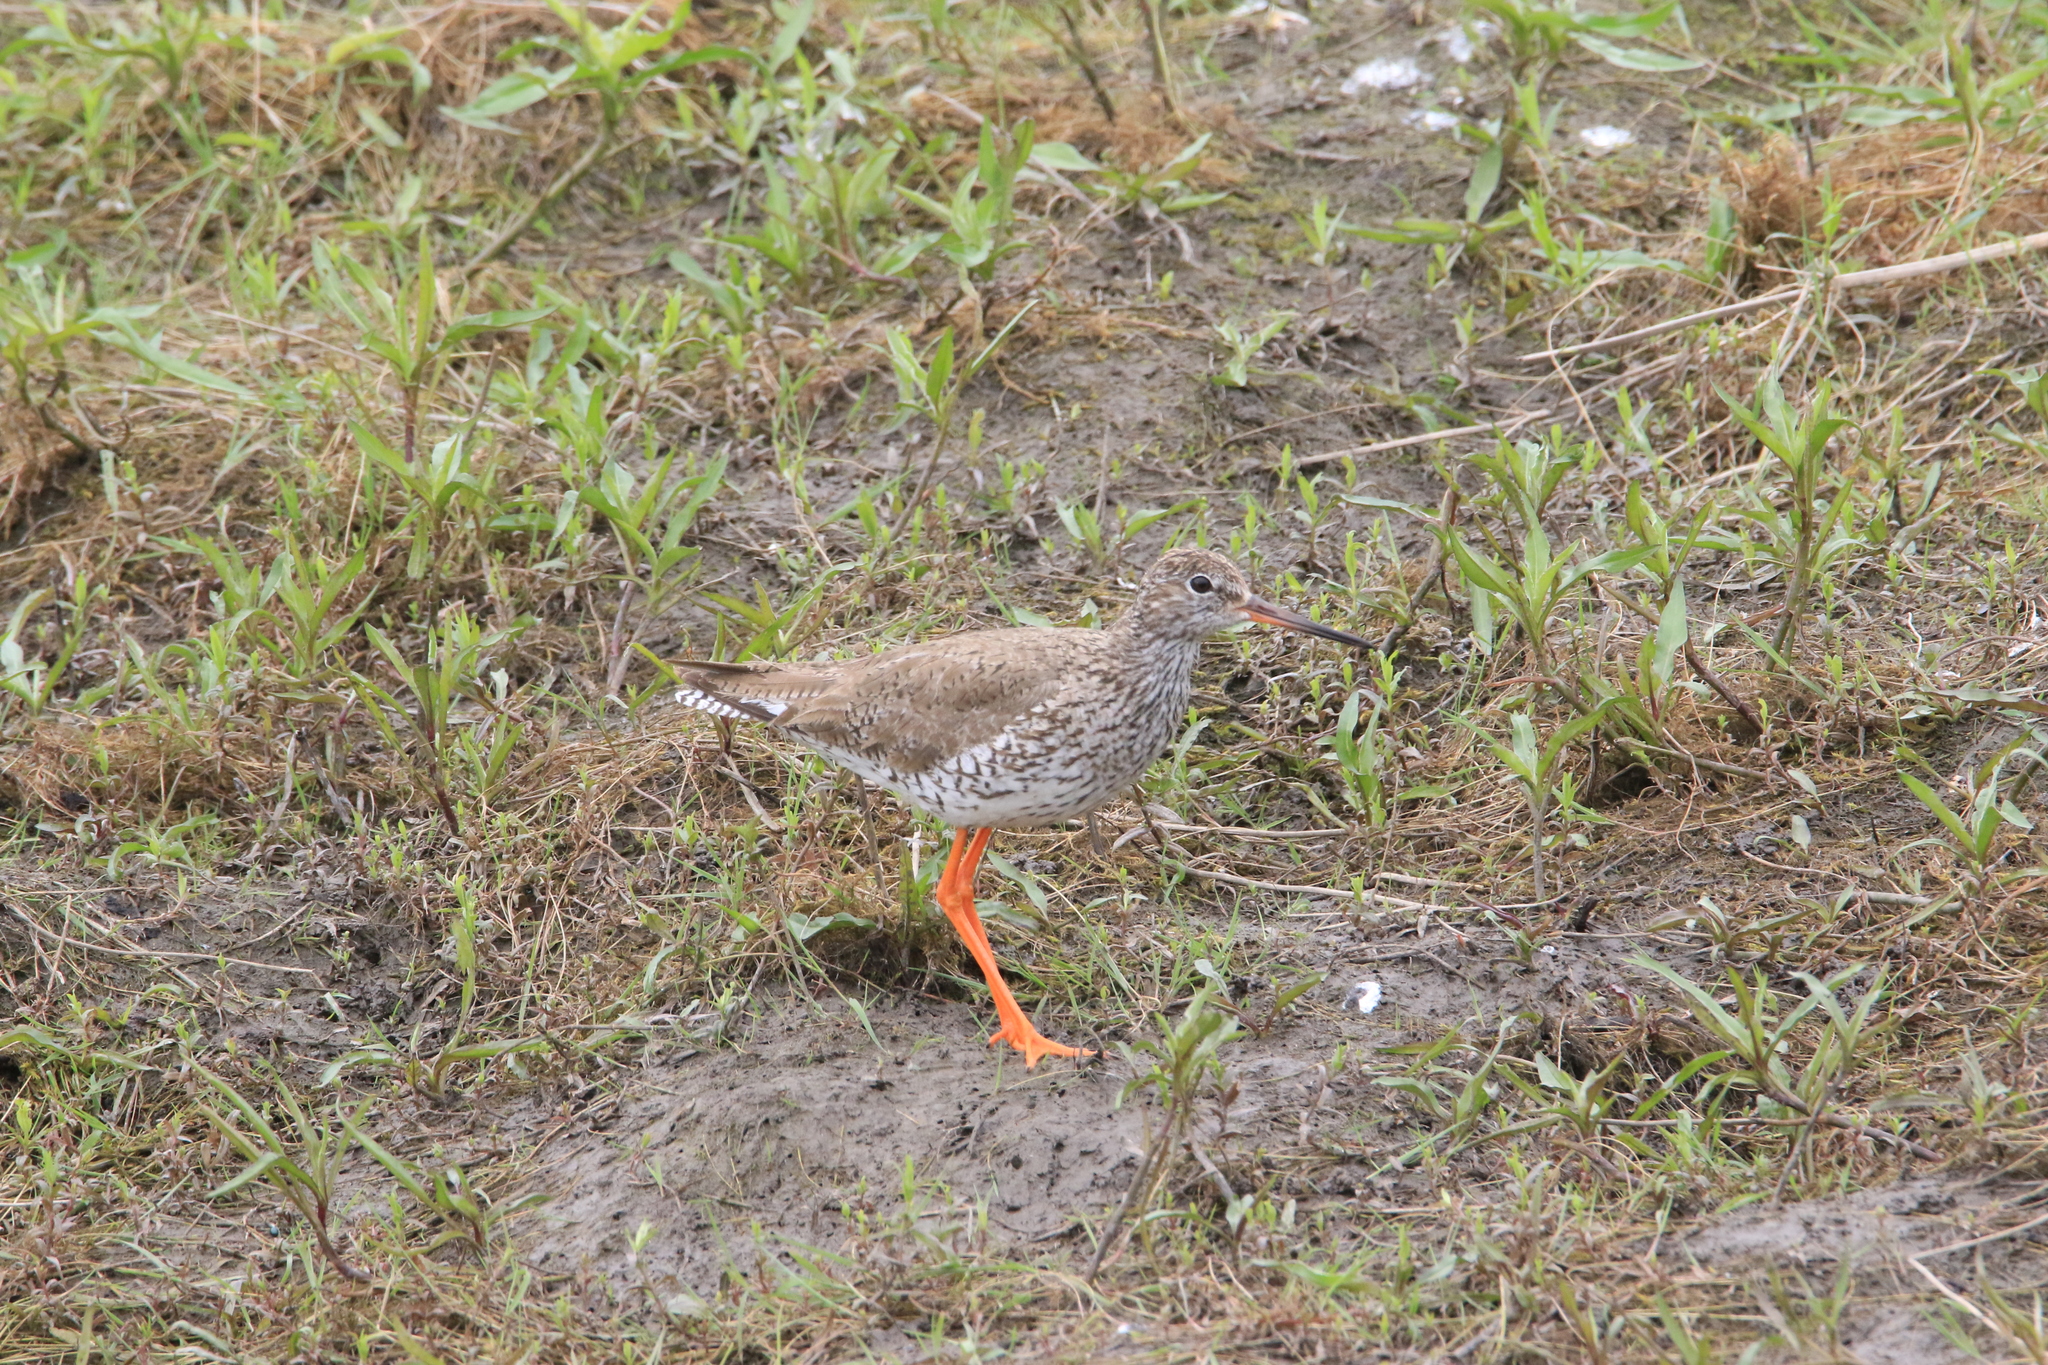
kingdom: Animalia
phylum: Chordata
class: Aves
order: Charadriiformes
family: Scolopacidae
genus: Tringa
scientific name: Tringa totanus
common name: Common redshank
